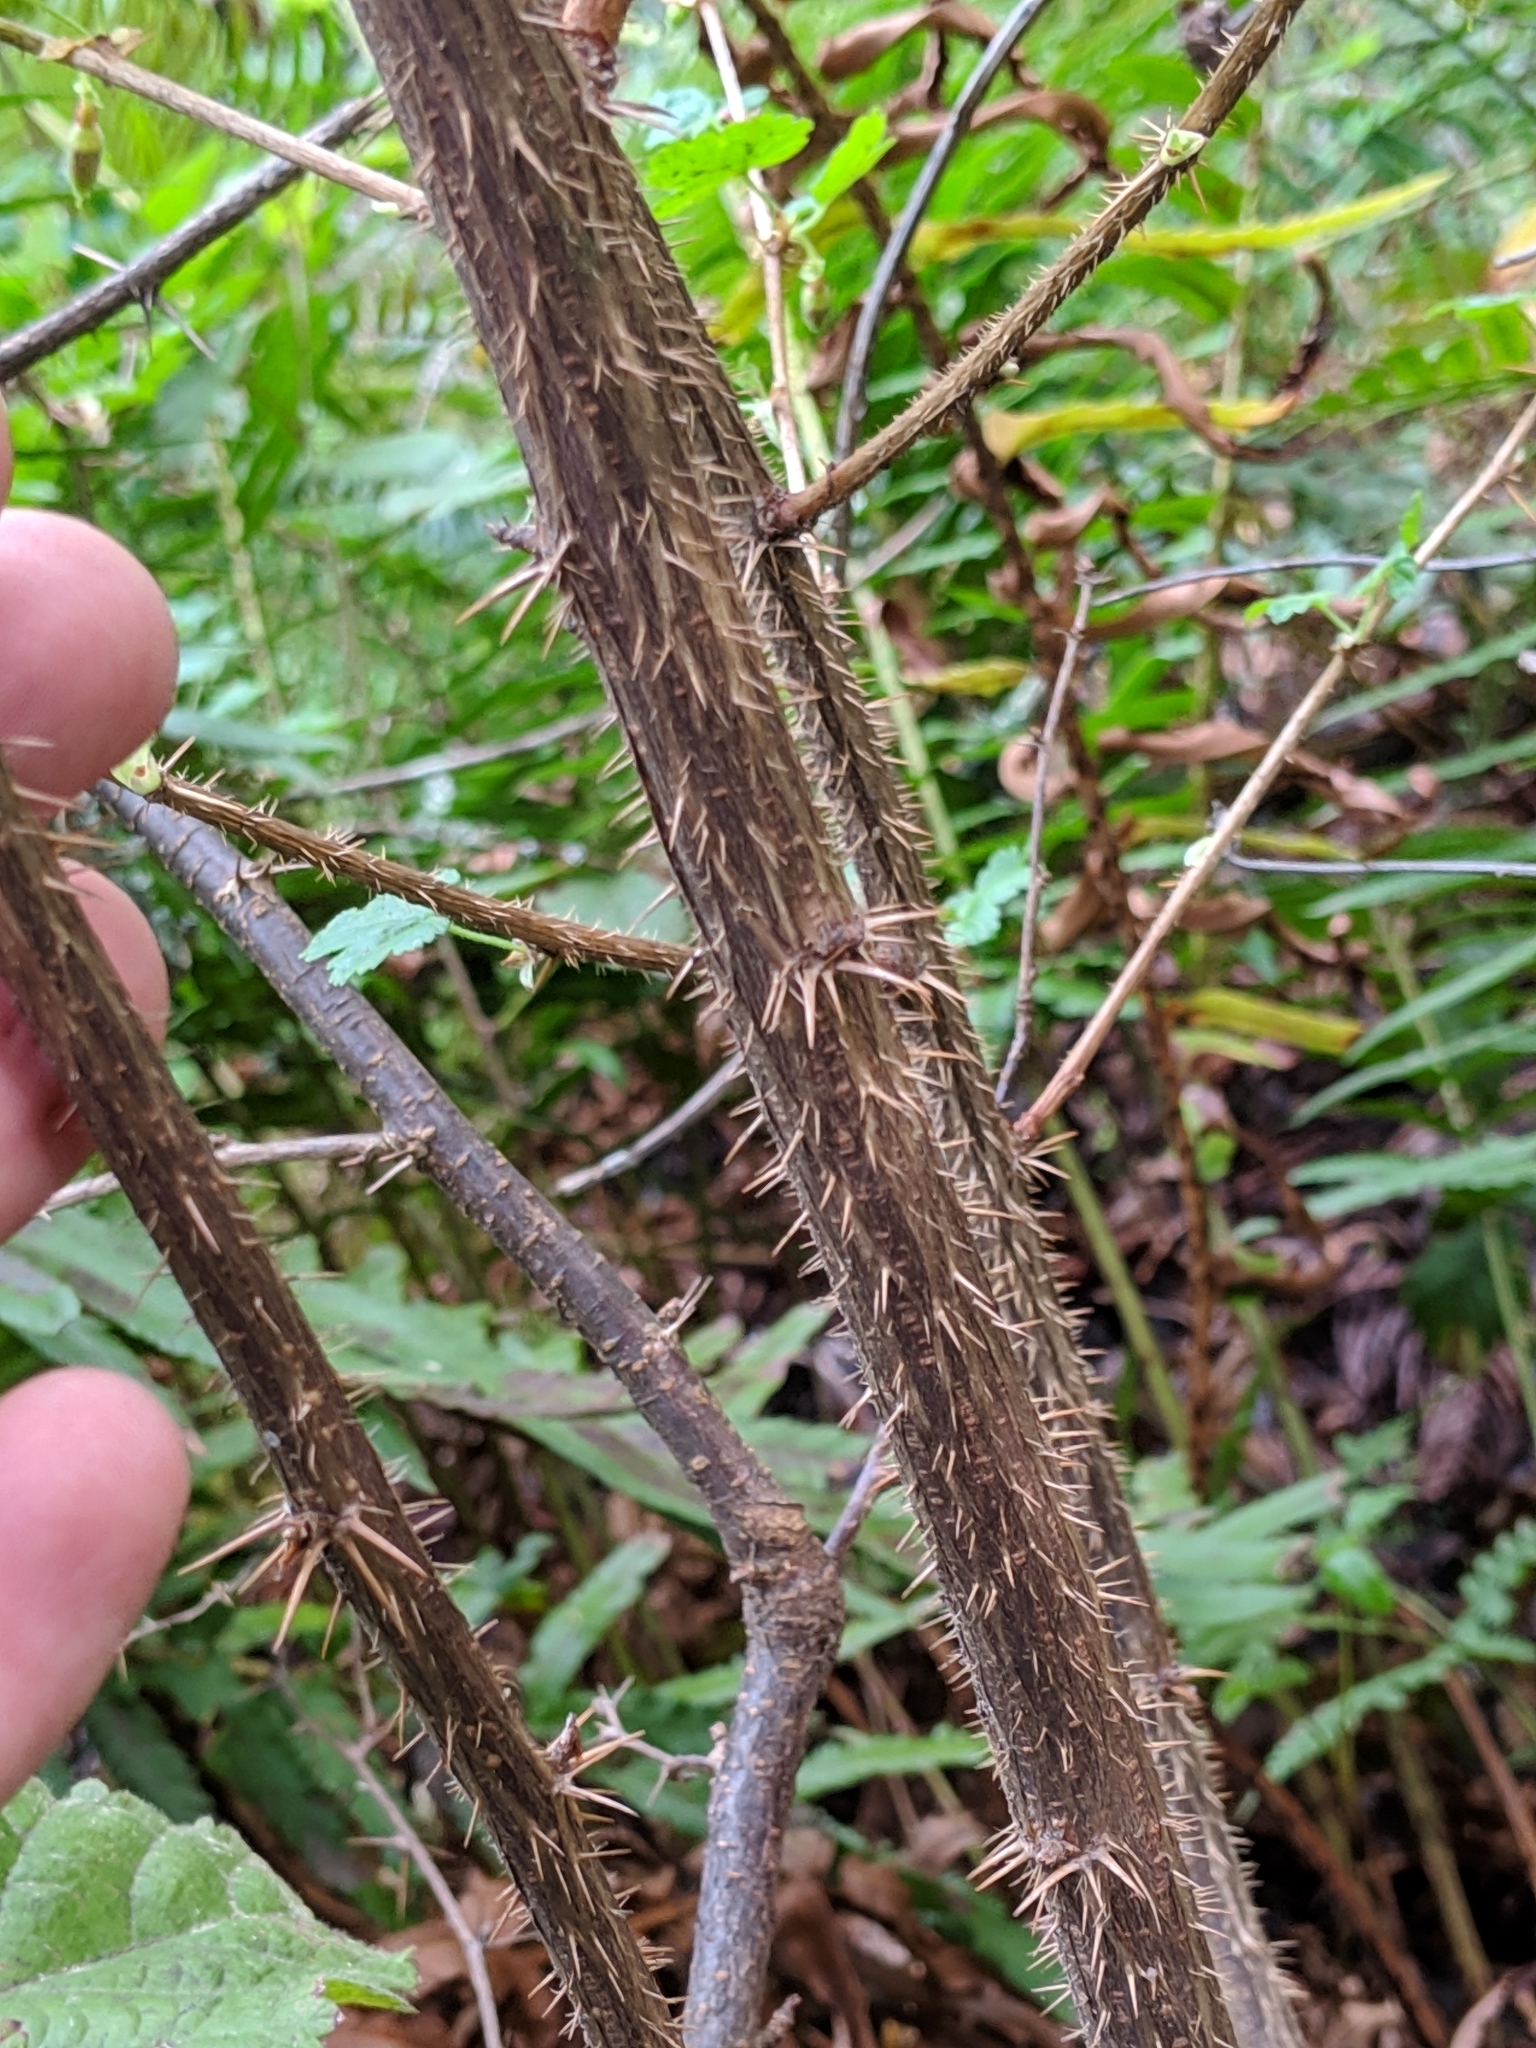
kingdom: Plantae
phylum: Tracheophyta
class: Magnoliopsida
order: Saxifragales
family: Grossulariaceae
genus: Ribes
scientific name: Ribes menziesii
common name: Canyon gooseberry
